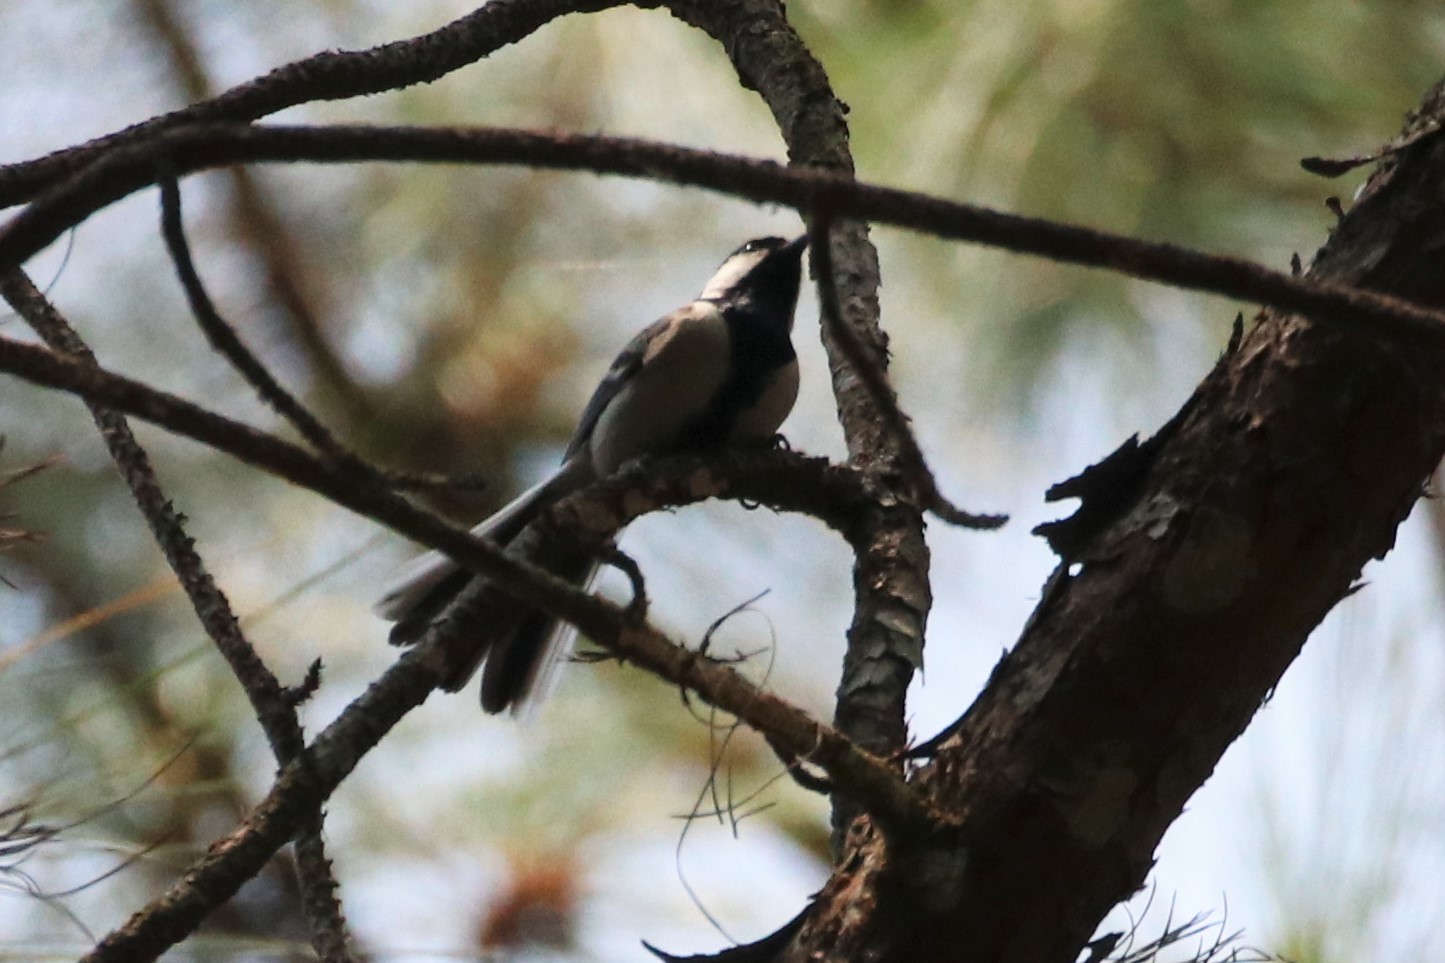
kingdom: Animalia
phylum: Chordata
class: Aves
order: Passeriformes
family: Paridae
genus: Parus
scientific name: Parus minor
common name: Japanese tit
